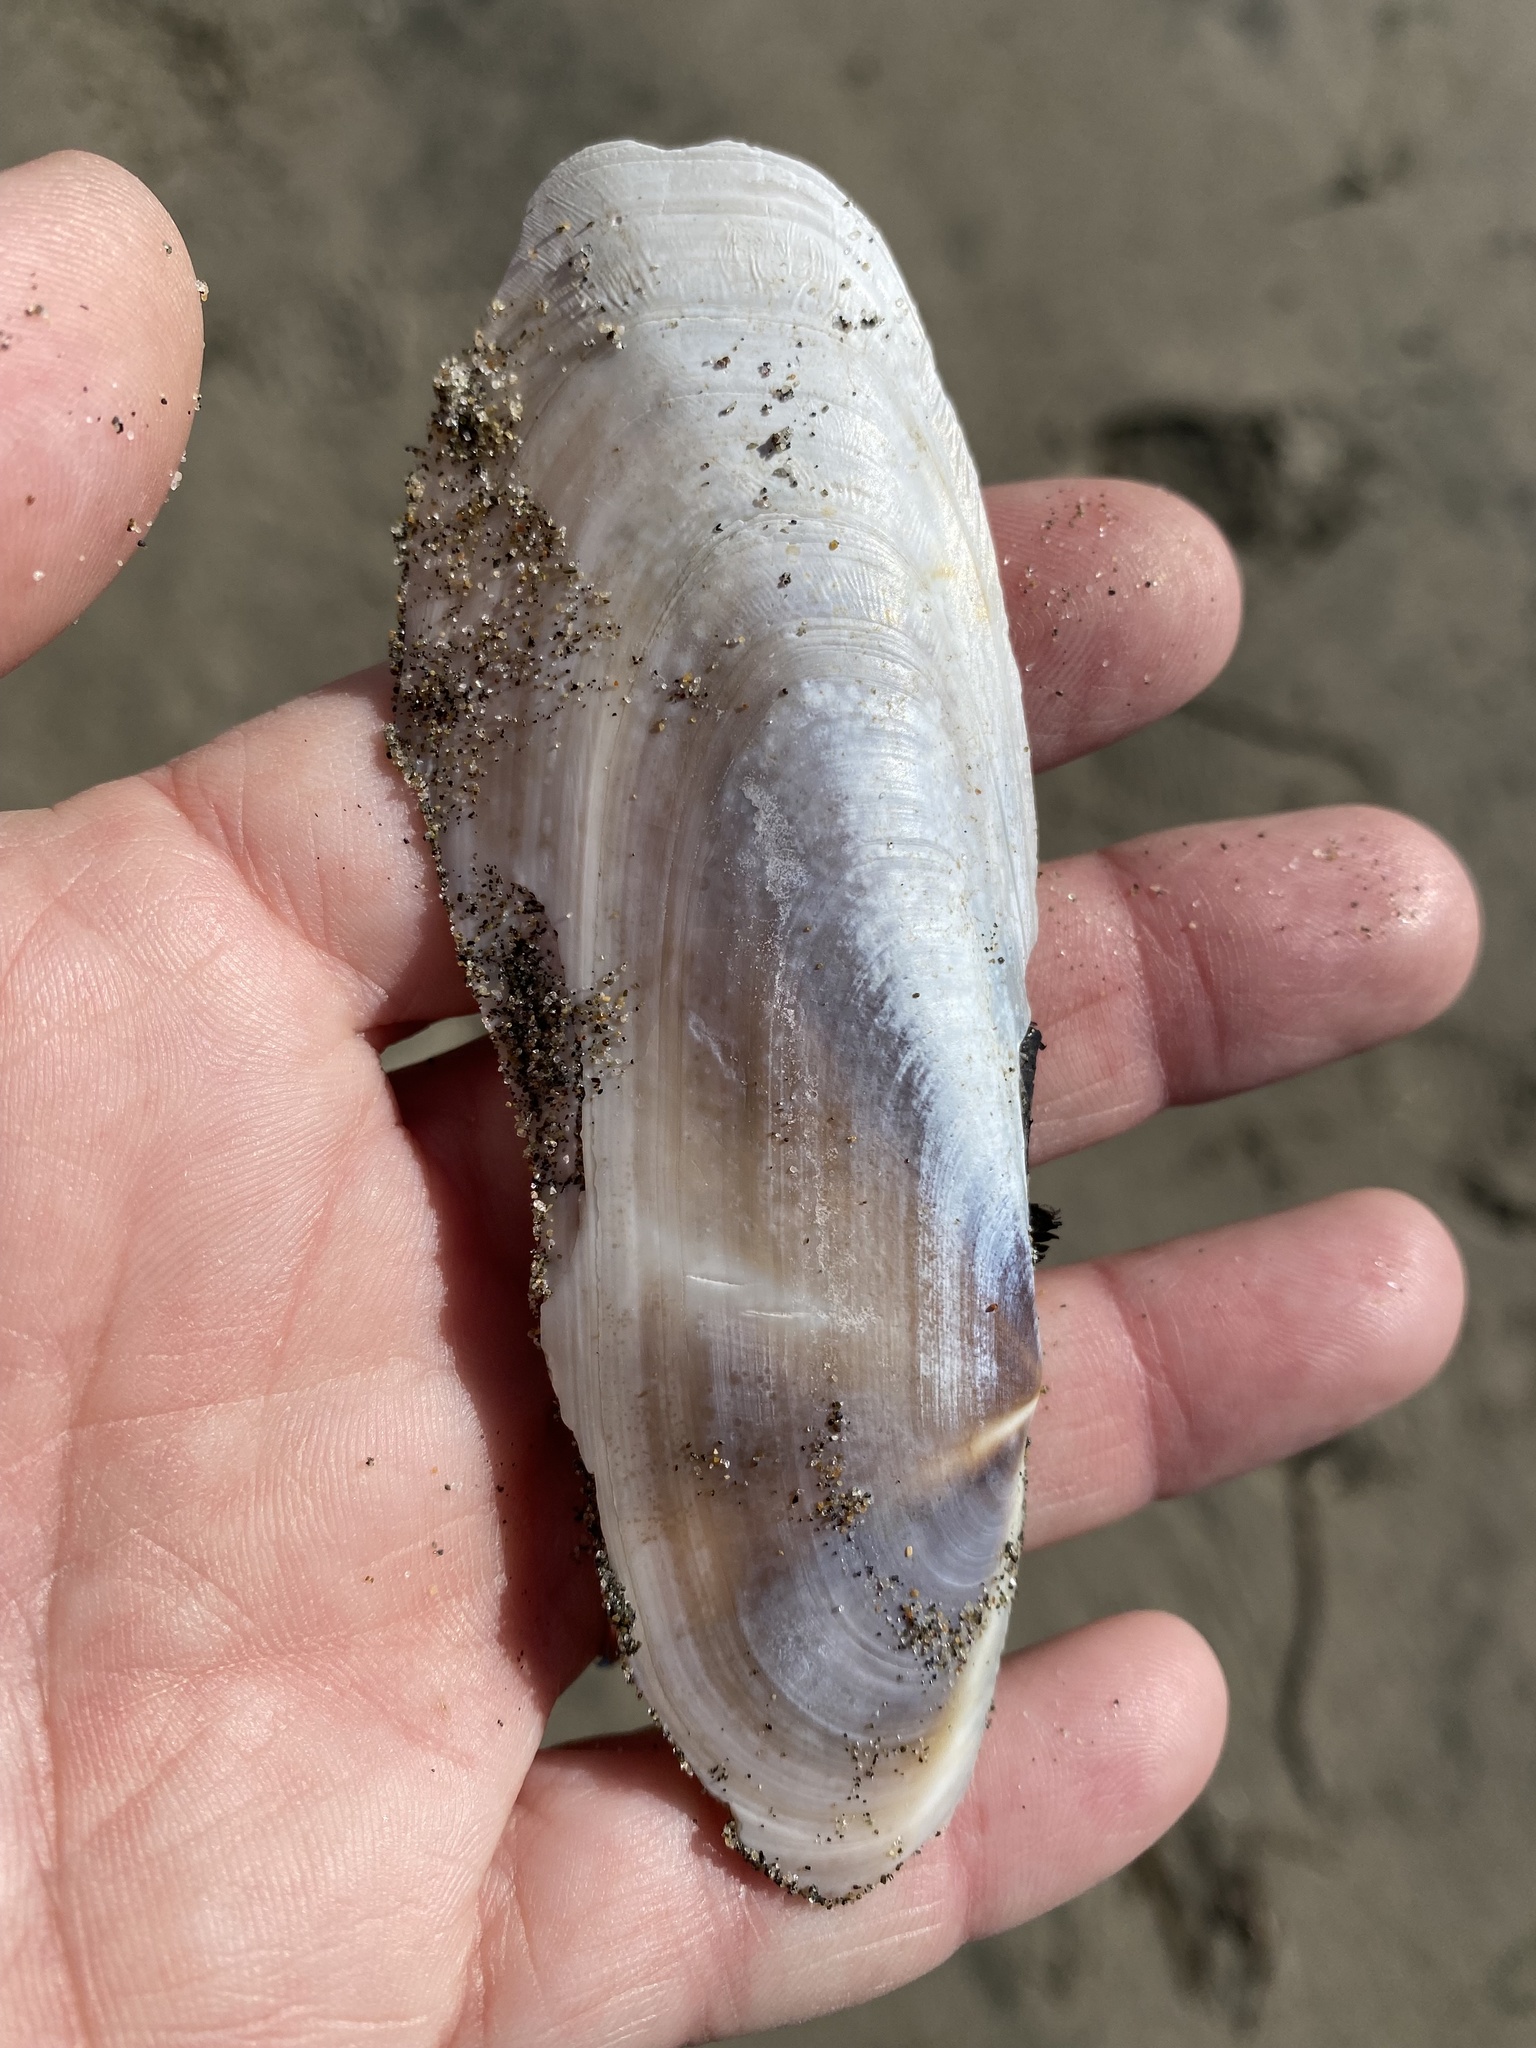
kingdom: Animalia
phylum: Mollusca
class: Bivalvia
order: Adapedonta
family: Pharidae
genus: Siliqua
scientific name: Siliqua patula
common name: Pacific razor clam
